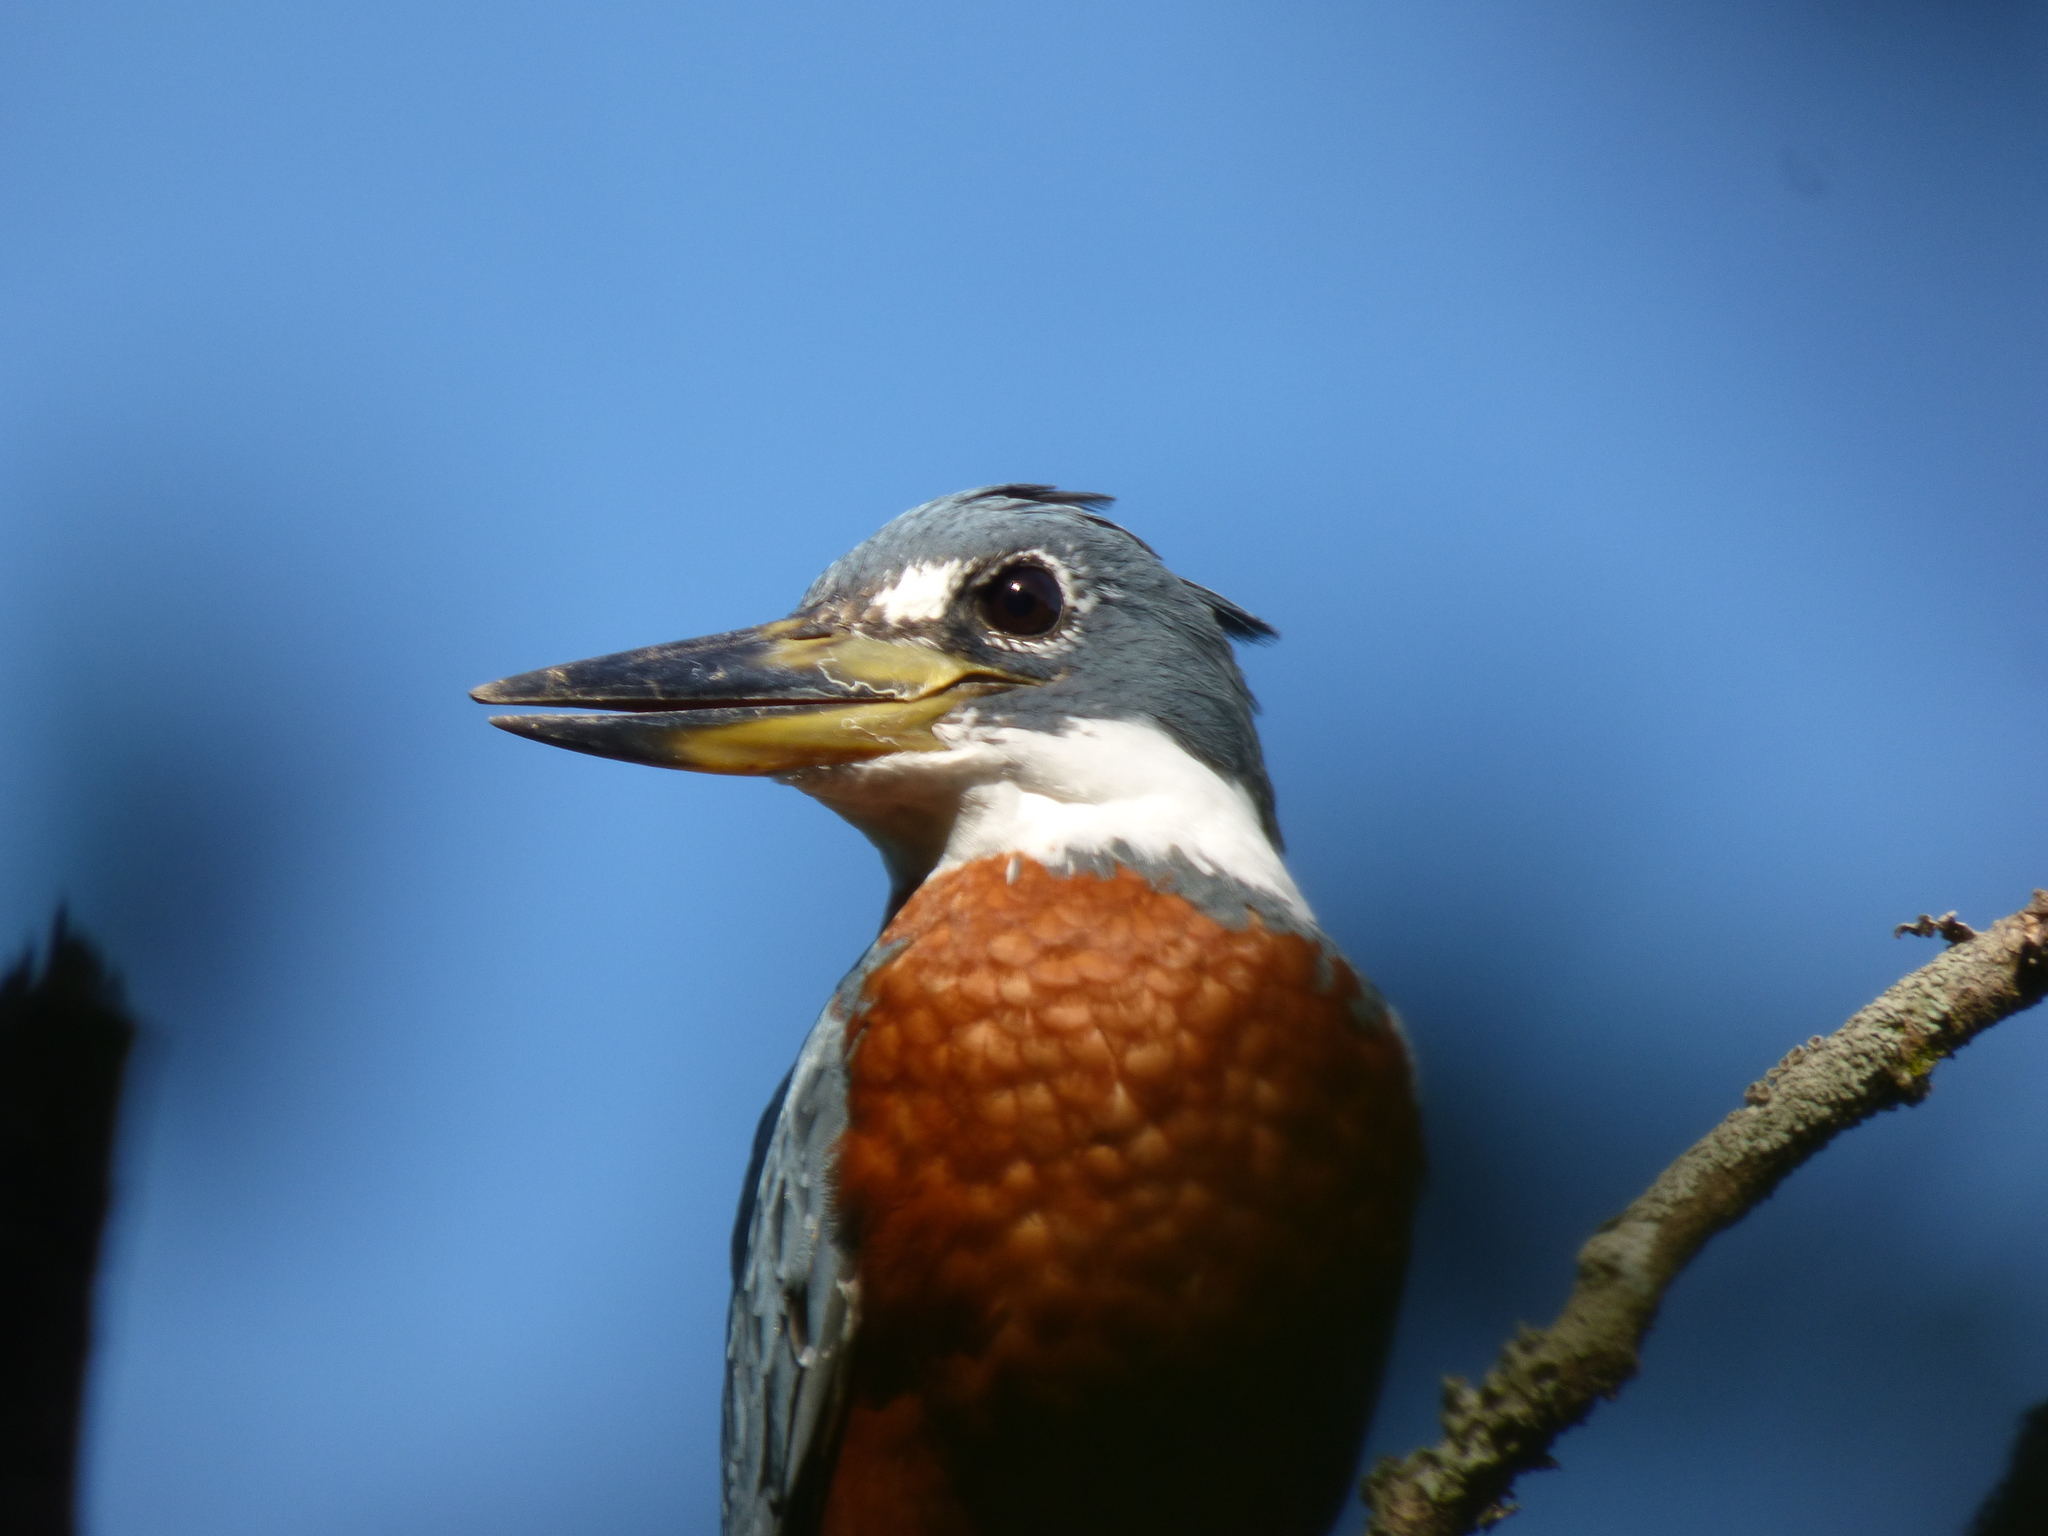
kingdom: Animalia
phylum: Chordata
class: Aves
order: Coraciiformes
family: Alcedinidae
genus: Megaceryle
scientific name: Megaceryle torquata
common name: Ringed kingfisher
